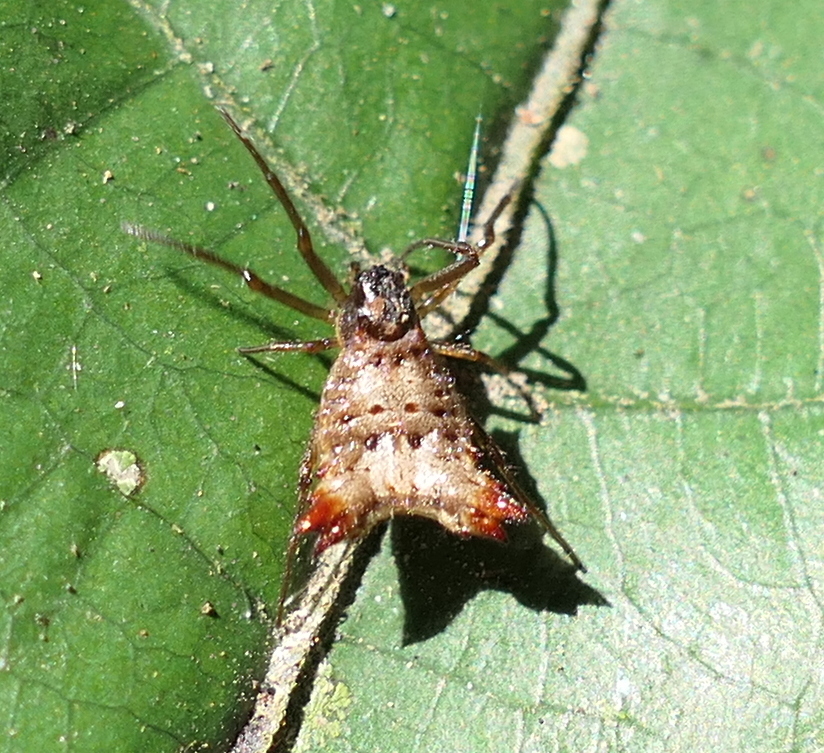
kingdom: Animalia
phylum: Arthropoda
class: Arachnida
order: Araneae
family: Araneidae
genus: Micrathena
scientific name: Micrathena plana
